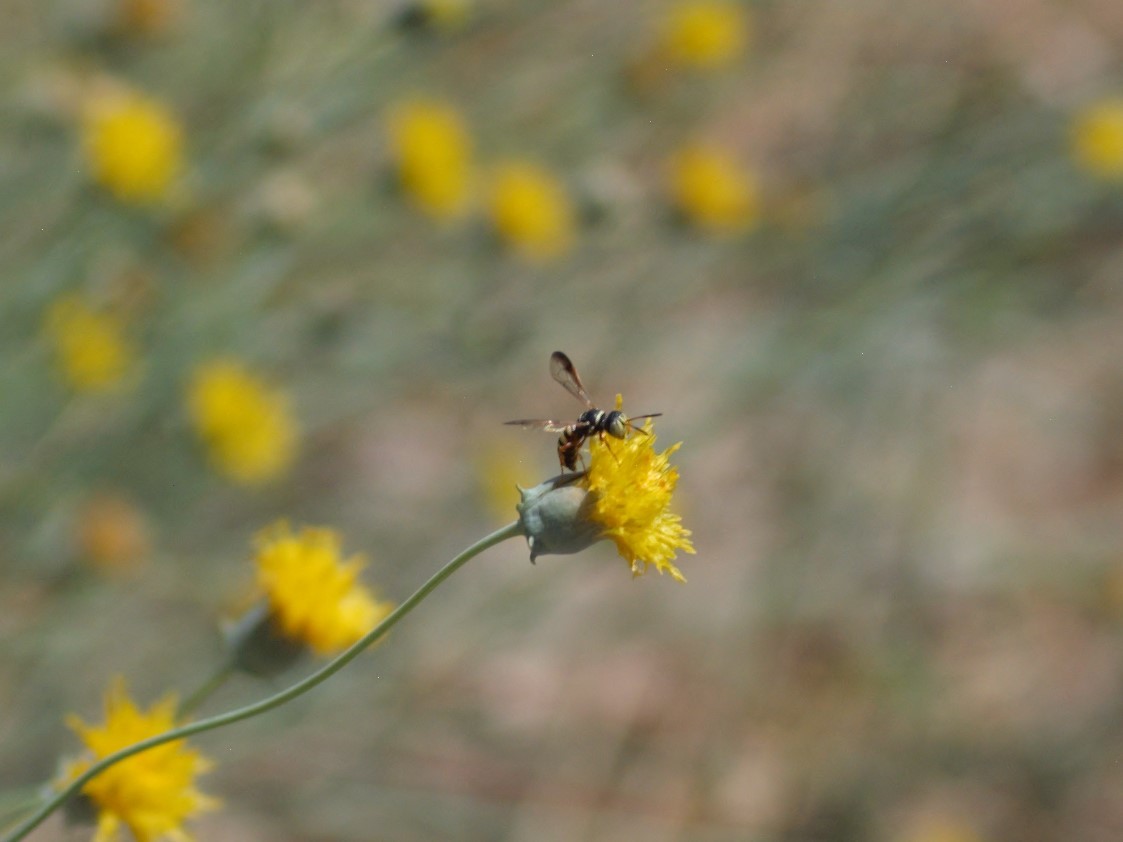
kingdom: Animalia
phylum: Arthropoda
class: Insecta
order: Hymenoptera
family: Crabronidae
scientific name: Crabronidae
